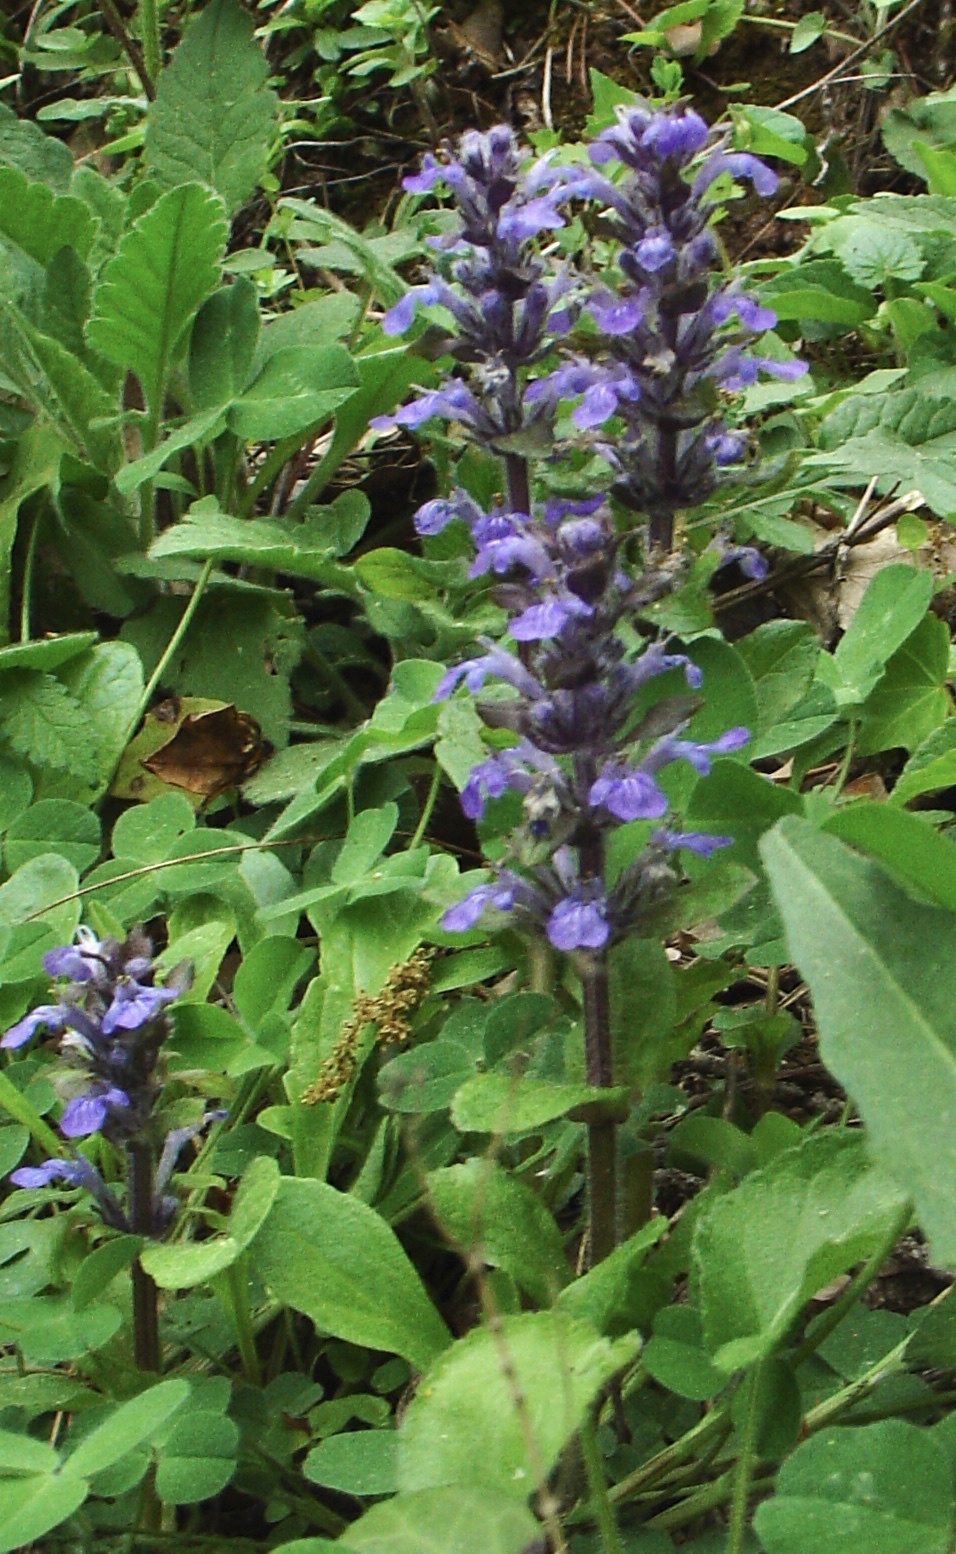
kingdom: Plantae
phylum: Tracheophyta
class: Magnoliopsida
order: Lamiales
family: Lamiaceae
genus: Ajuga
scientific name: Ajuga reptans
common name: Bugle
